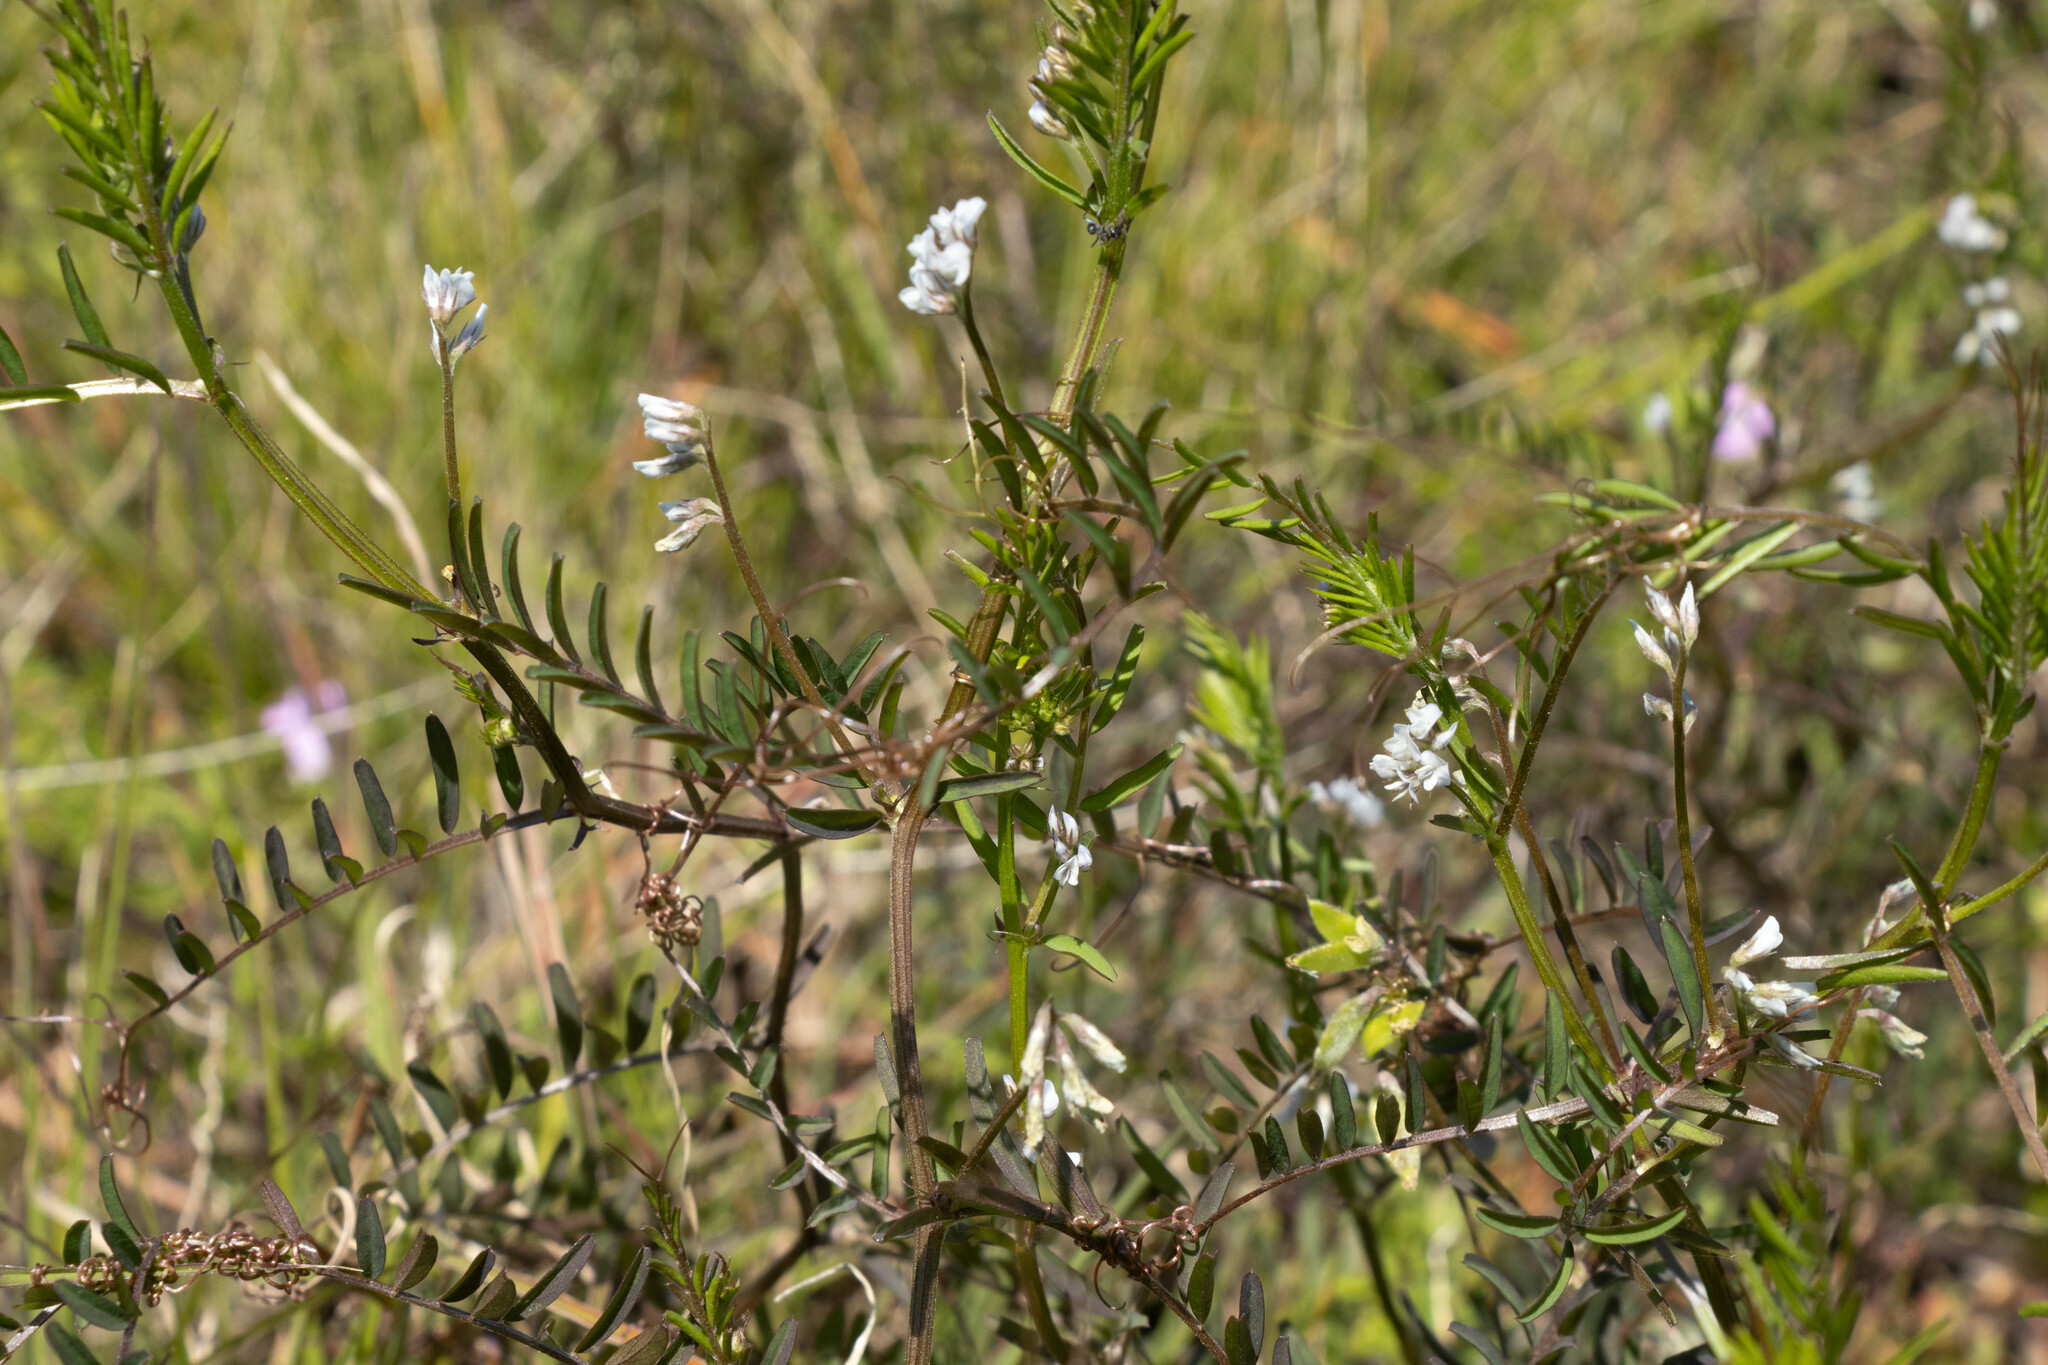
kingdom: Plantae
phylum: Tracheophyta
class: Magnoliopsida
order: Fabales
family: Fabaceae
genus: Vicia
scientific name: Vicia hirsuta
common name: Tiny vetch
